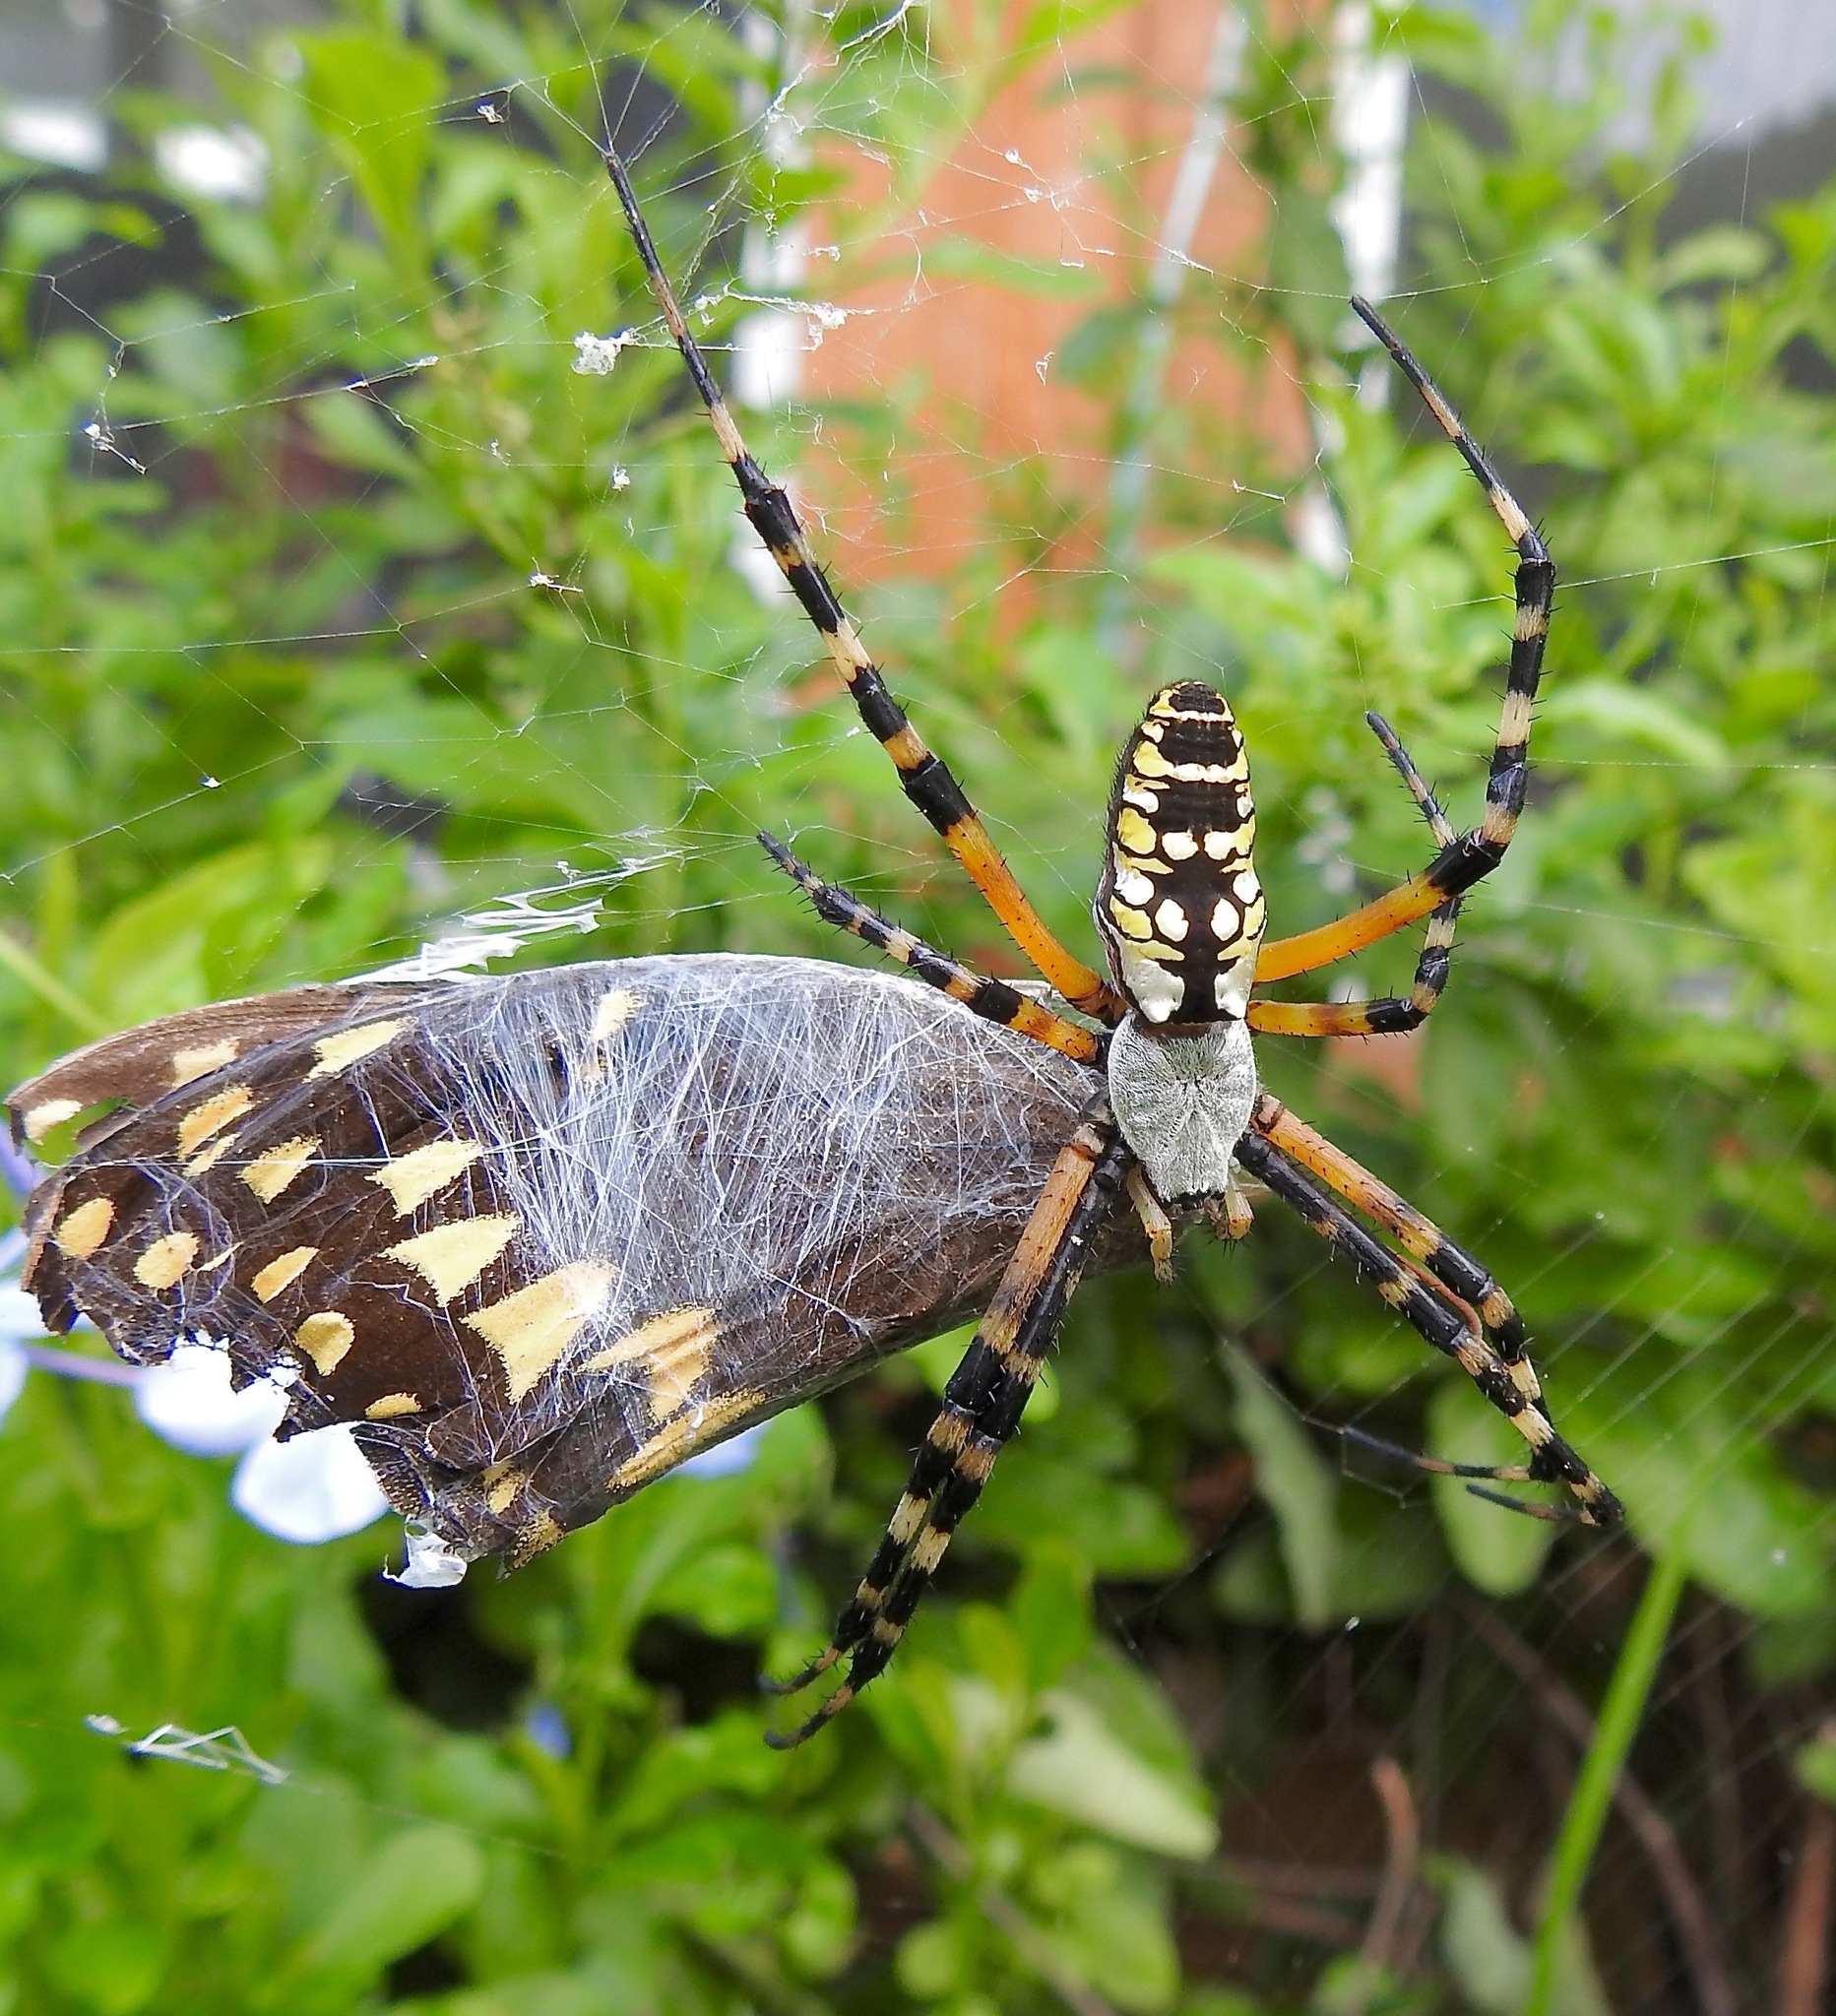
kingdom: Animalia
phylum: Arthropoda
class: Arachnida
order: Araneae
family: Araneidae
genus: Argiope
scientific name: Argiope aurantia
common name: Orb weavers
